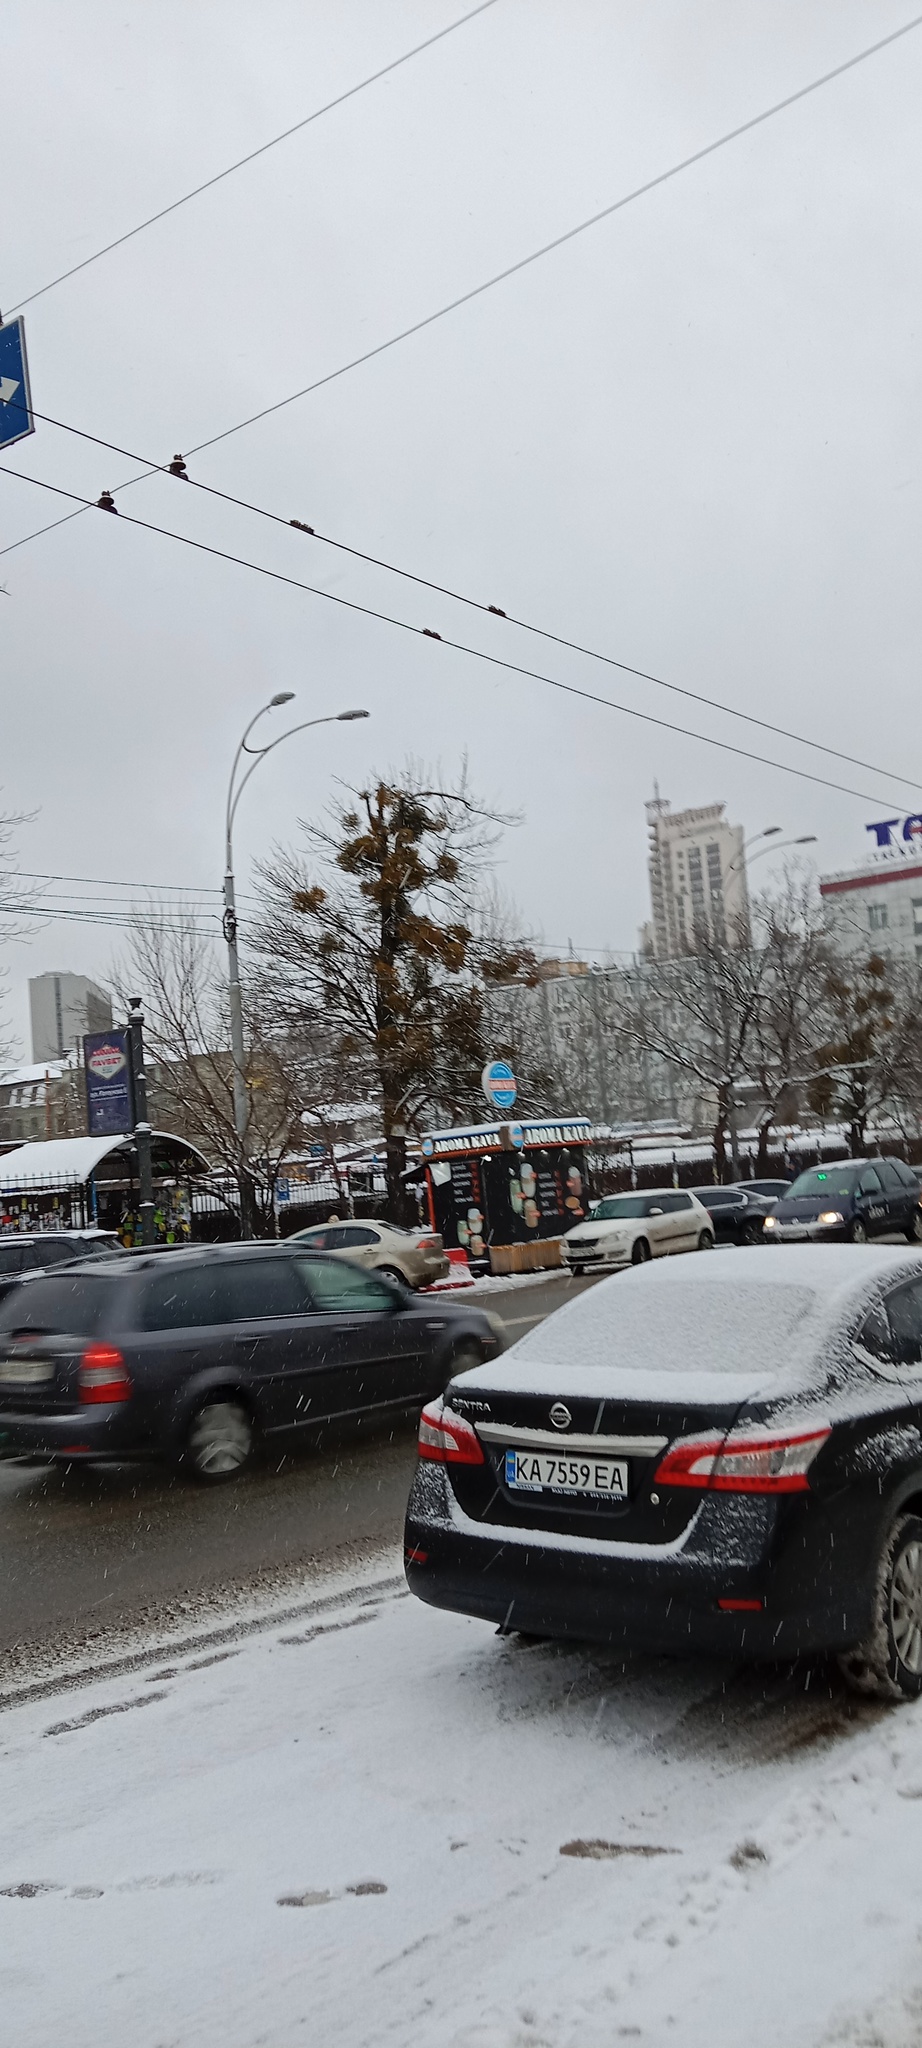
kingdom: Plantae
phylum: Tracheophyta
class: Magnoliopsida
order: Santalales
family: Viscaceae
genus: Viscum
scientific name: Viscum album
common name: Mistletoe
